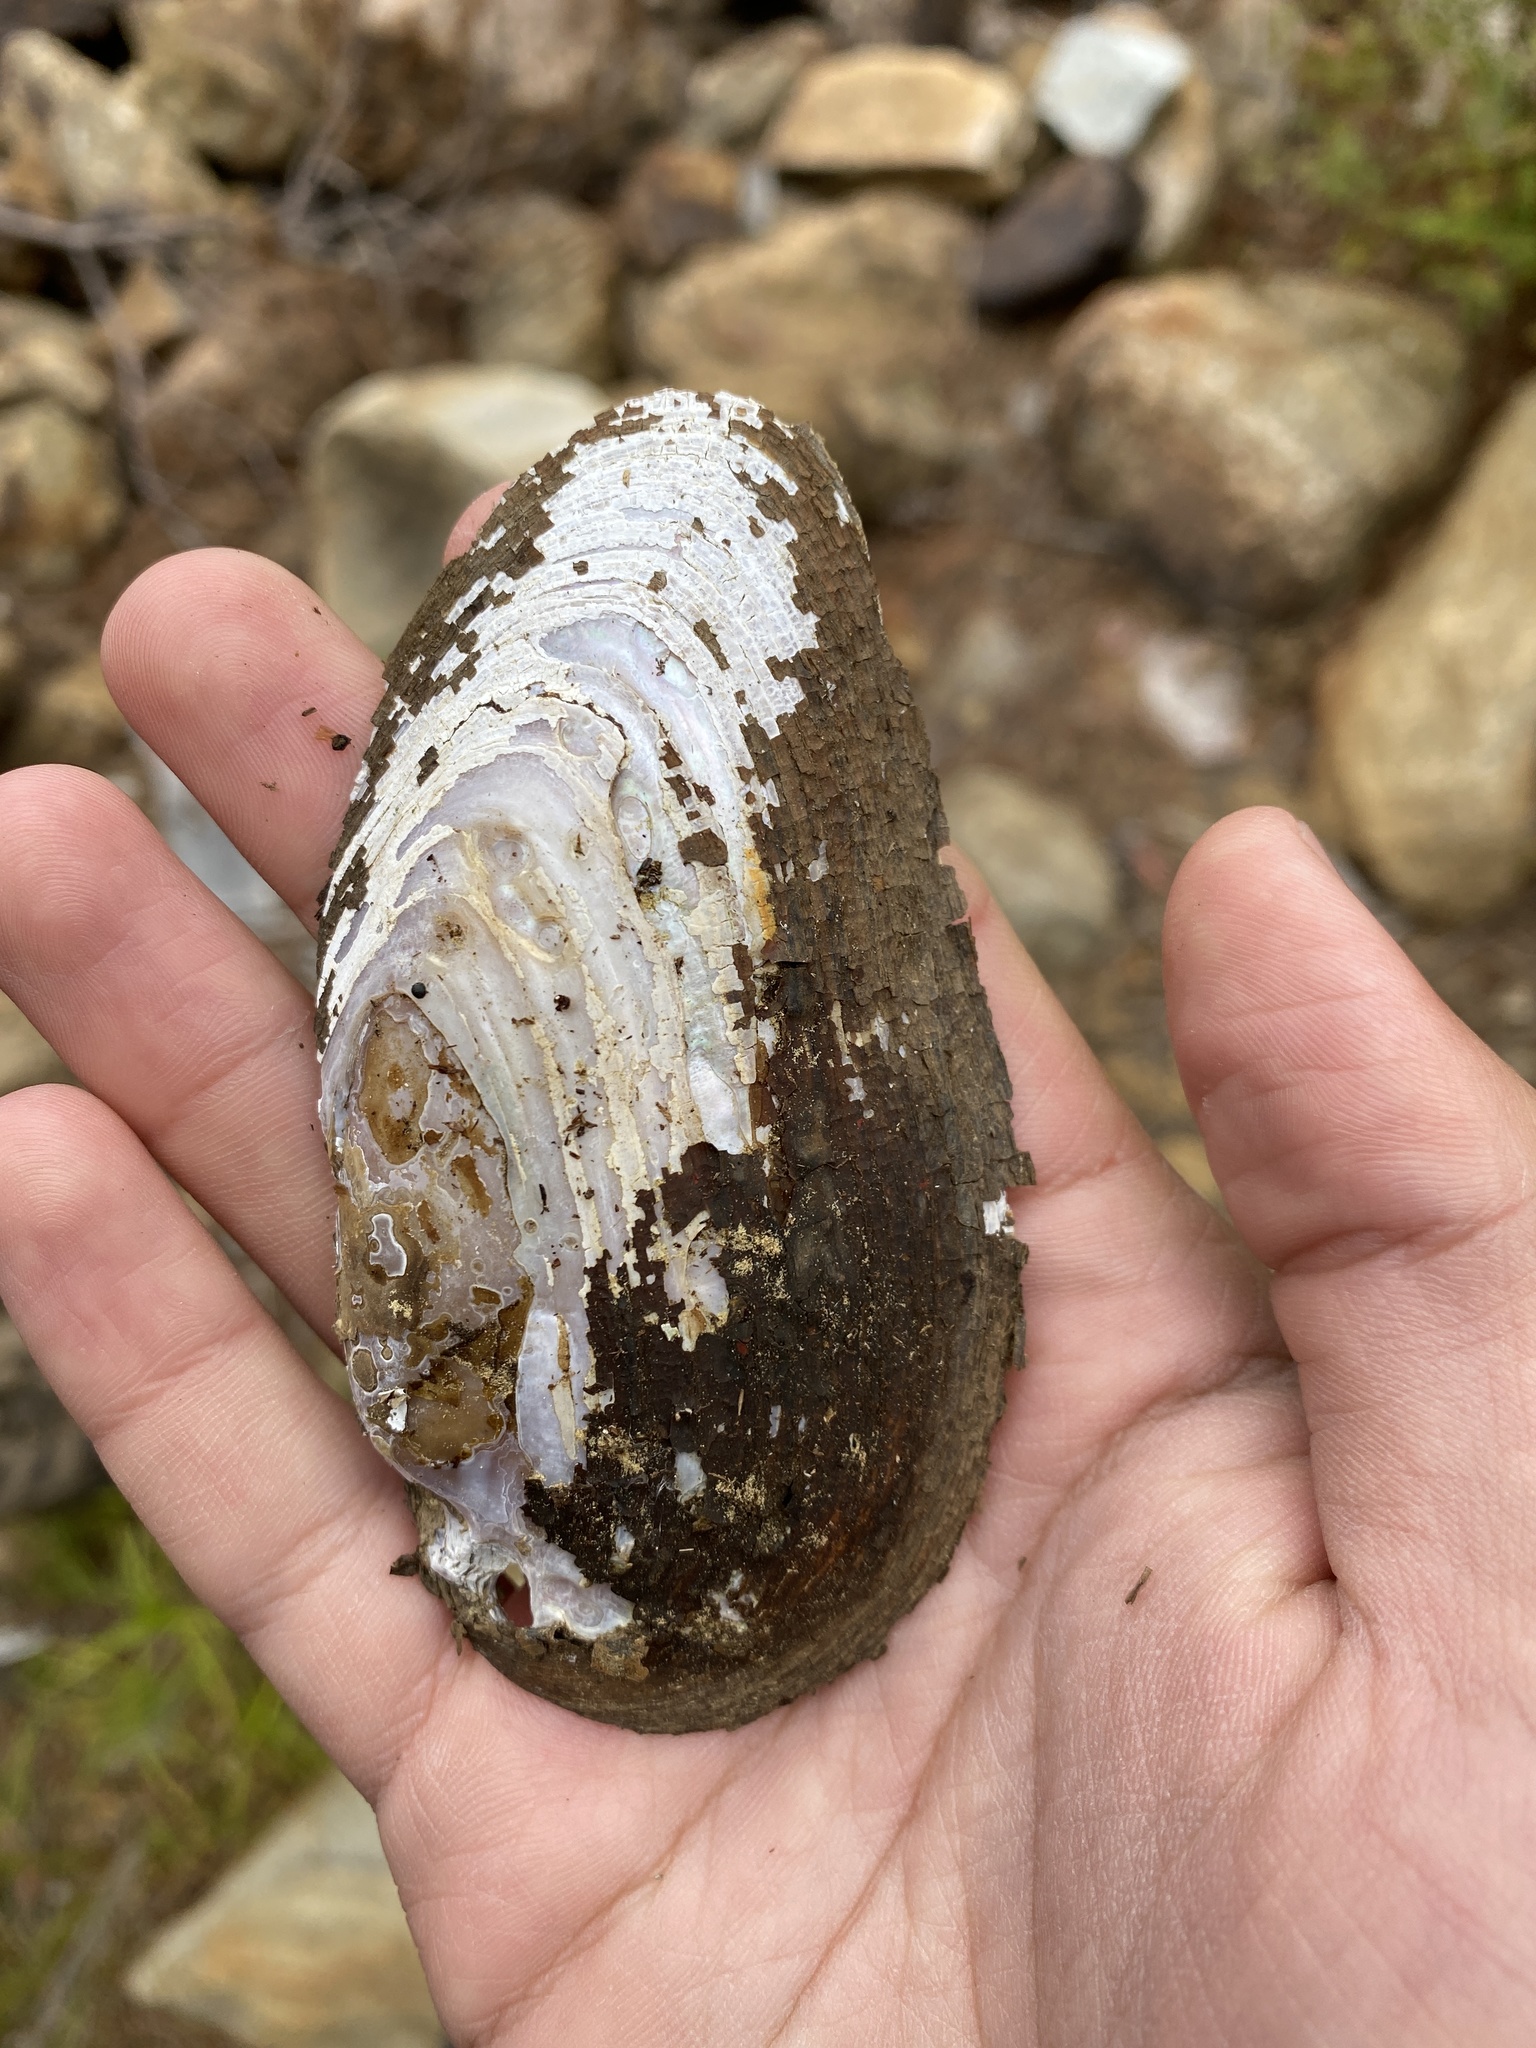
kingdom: Animalia
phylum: Mollusca
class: Bivalvia
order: Unionida
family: Unionidae
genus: Elliptio
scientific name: Elliptio complanata
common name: Eastern elliptio
